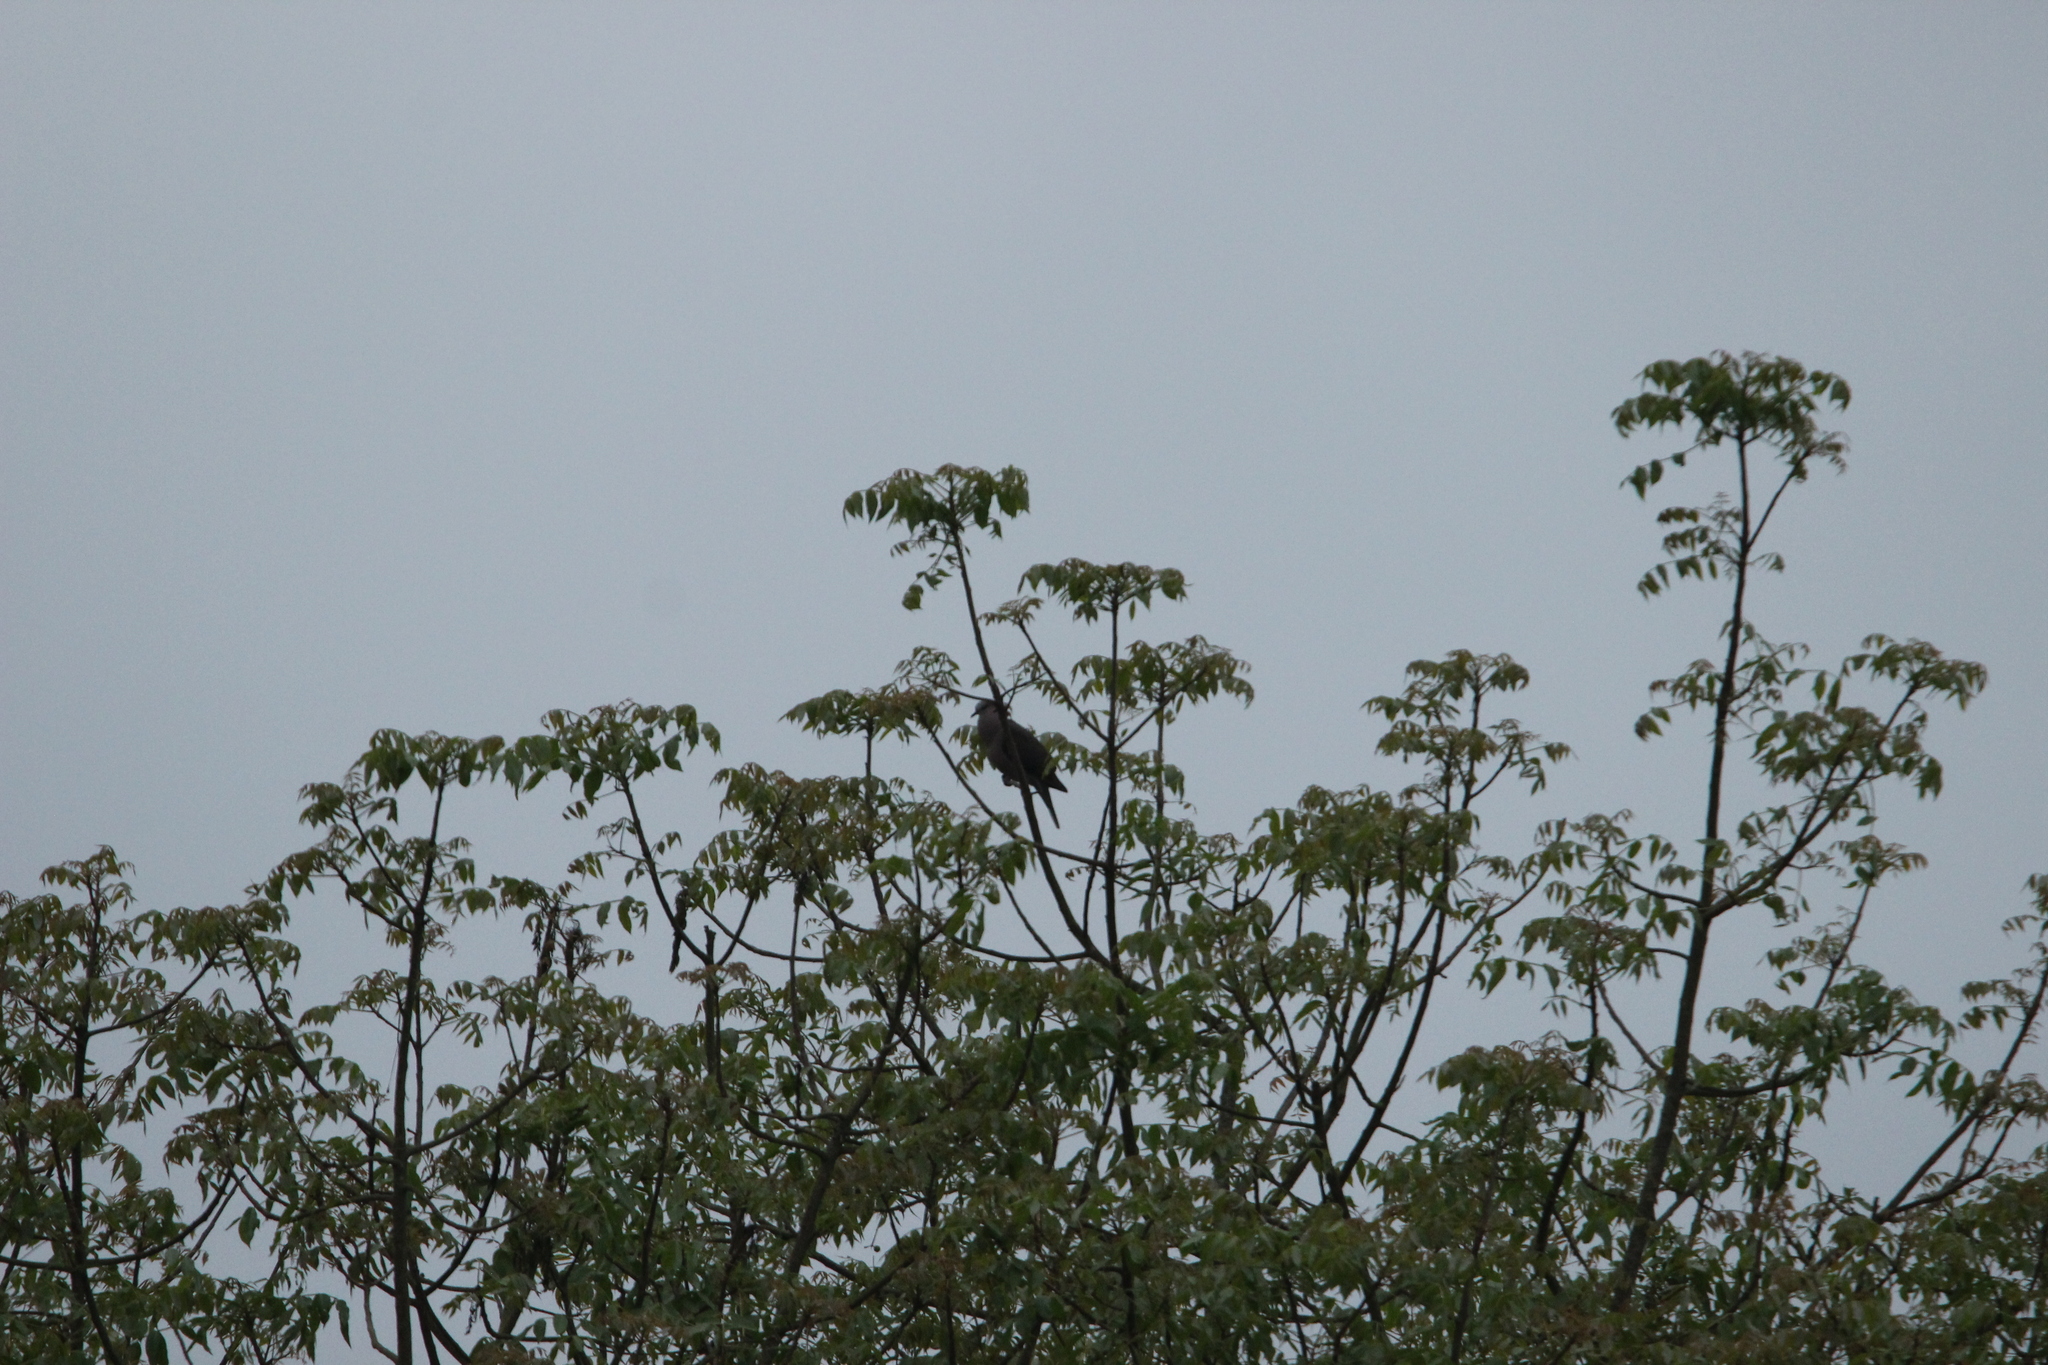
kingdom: Animalia
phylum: Chordata
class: Aves
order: Columbiformes
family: Columbidae
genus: Streptopelia
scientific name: Streptopelia semitorquata
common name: Red-eyed dove
